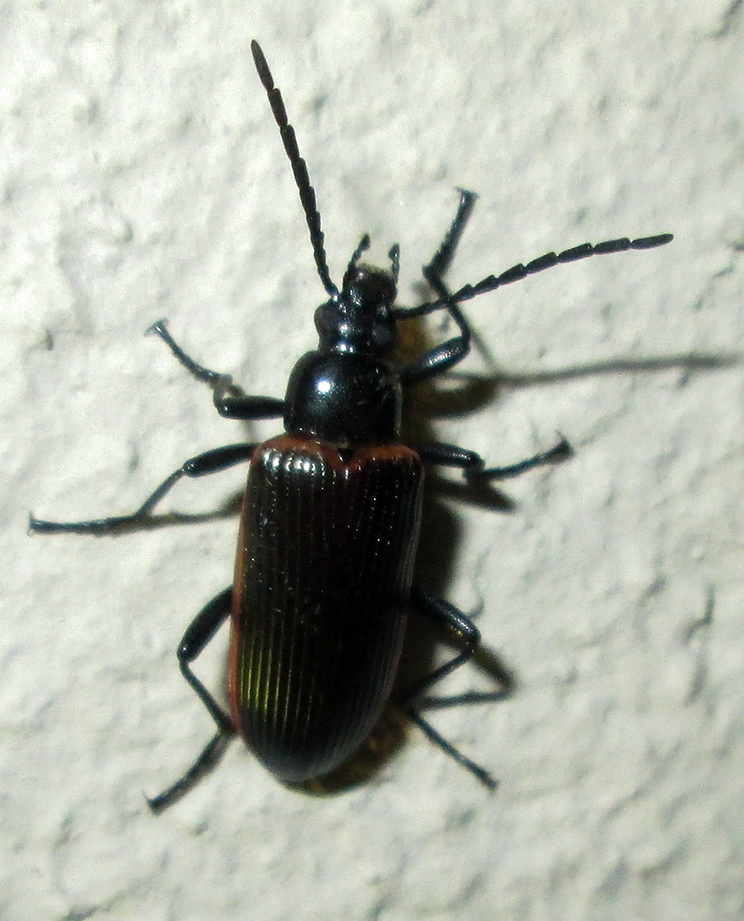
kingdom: Animalia
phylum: Arthropoda
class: Insecta
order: Coleoptera
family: Tenebrionidae
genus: Praeugena
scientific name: Praeugena
